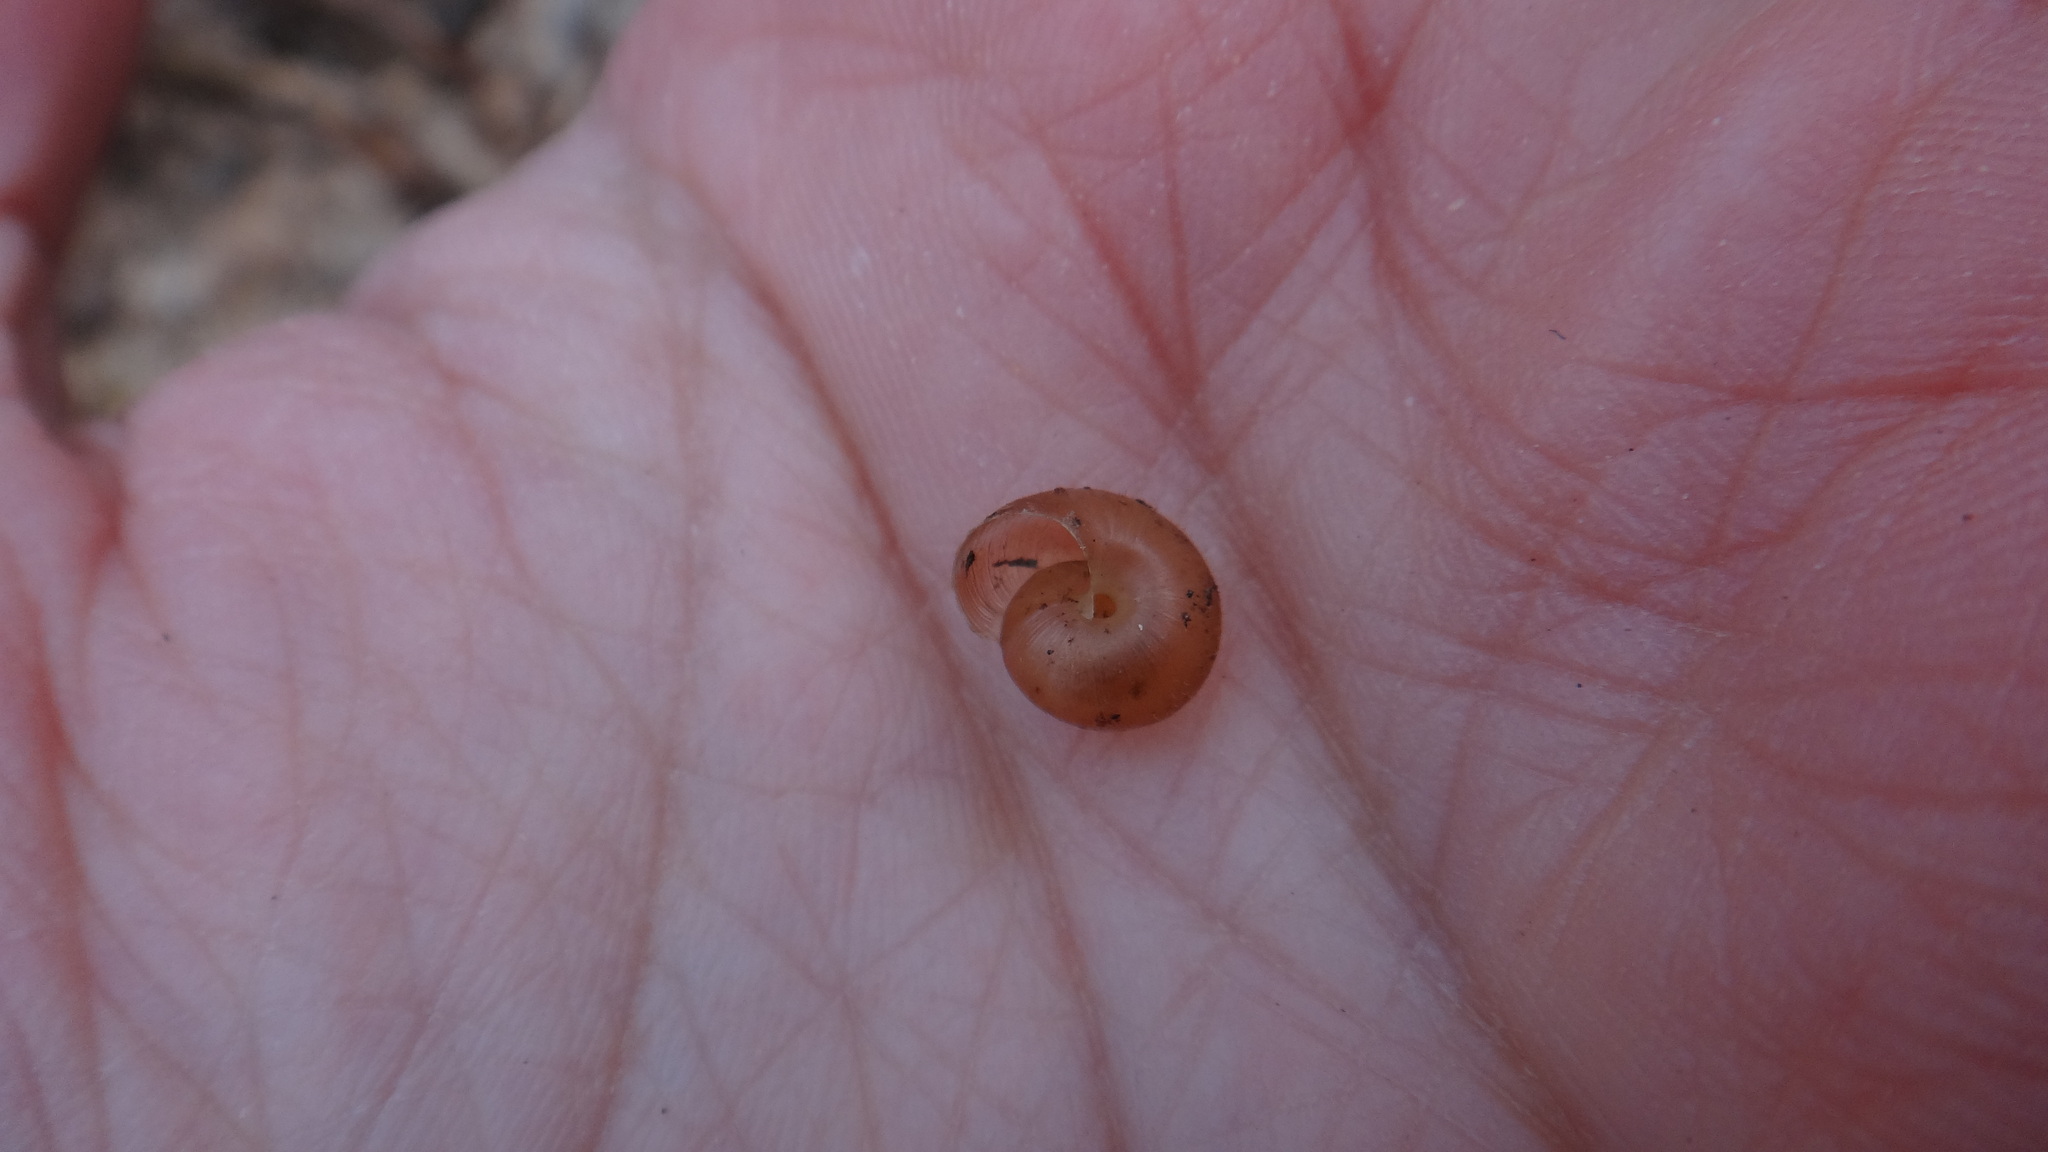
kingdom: Animalia
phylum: Mollusca
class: Gastropoda
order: Stylommatophora
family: Hygromiidae
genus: Euomphalia
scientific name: Euomphalia strigella
